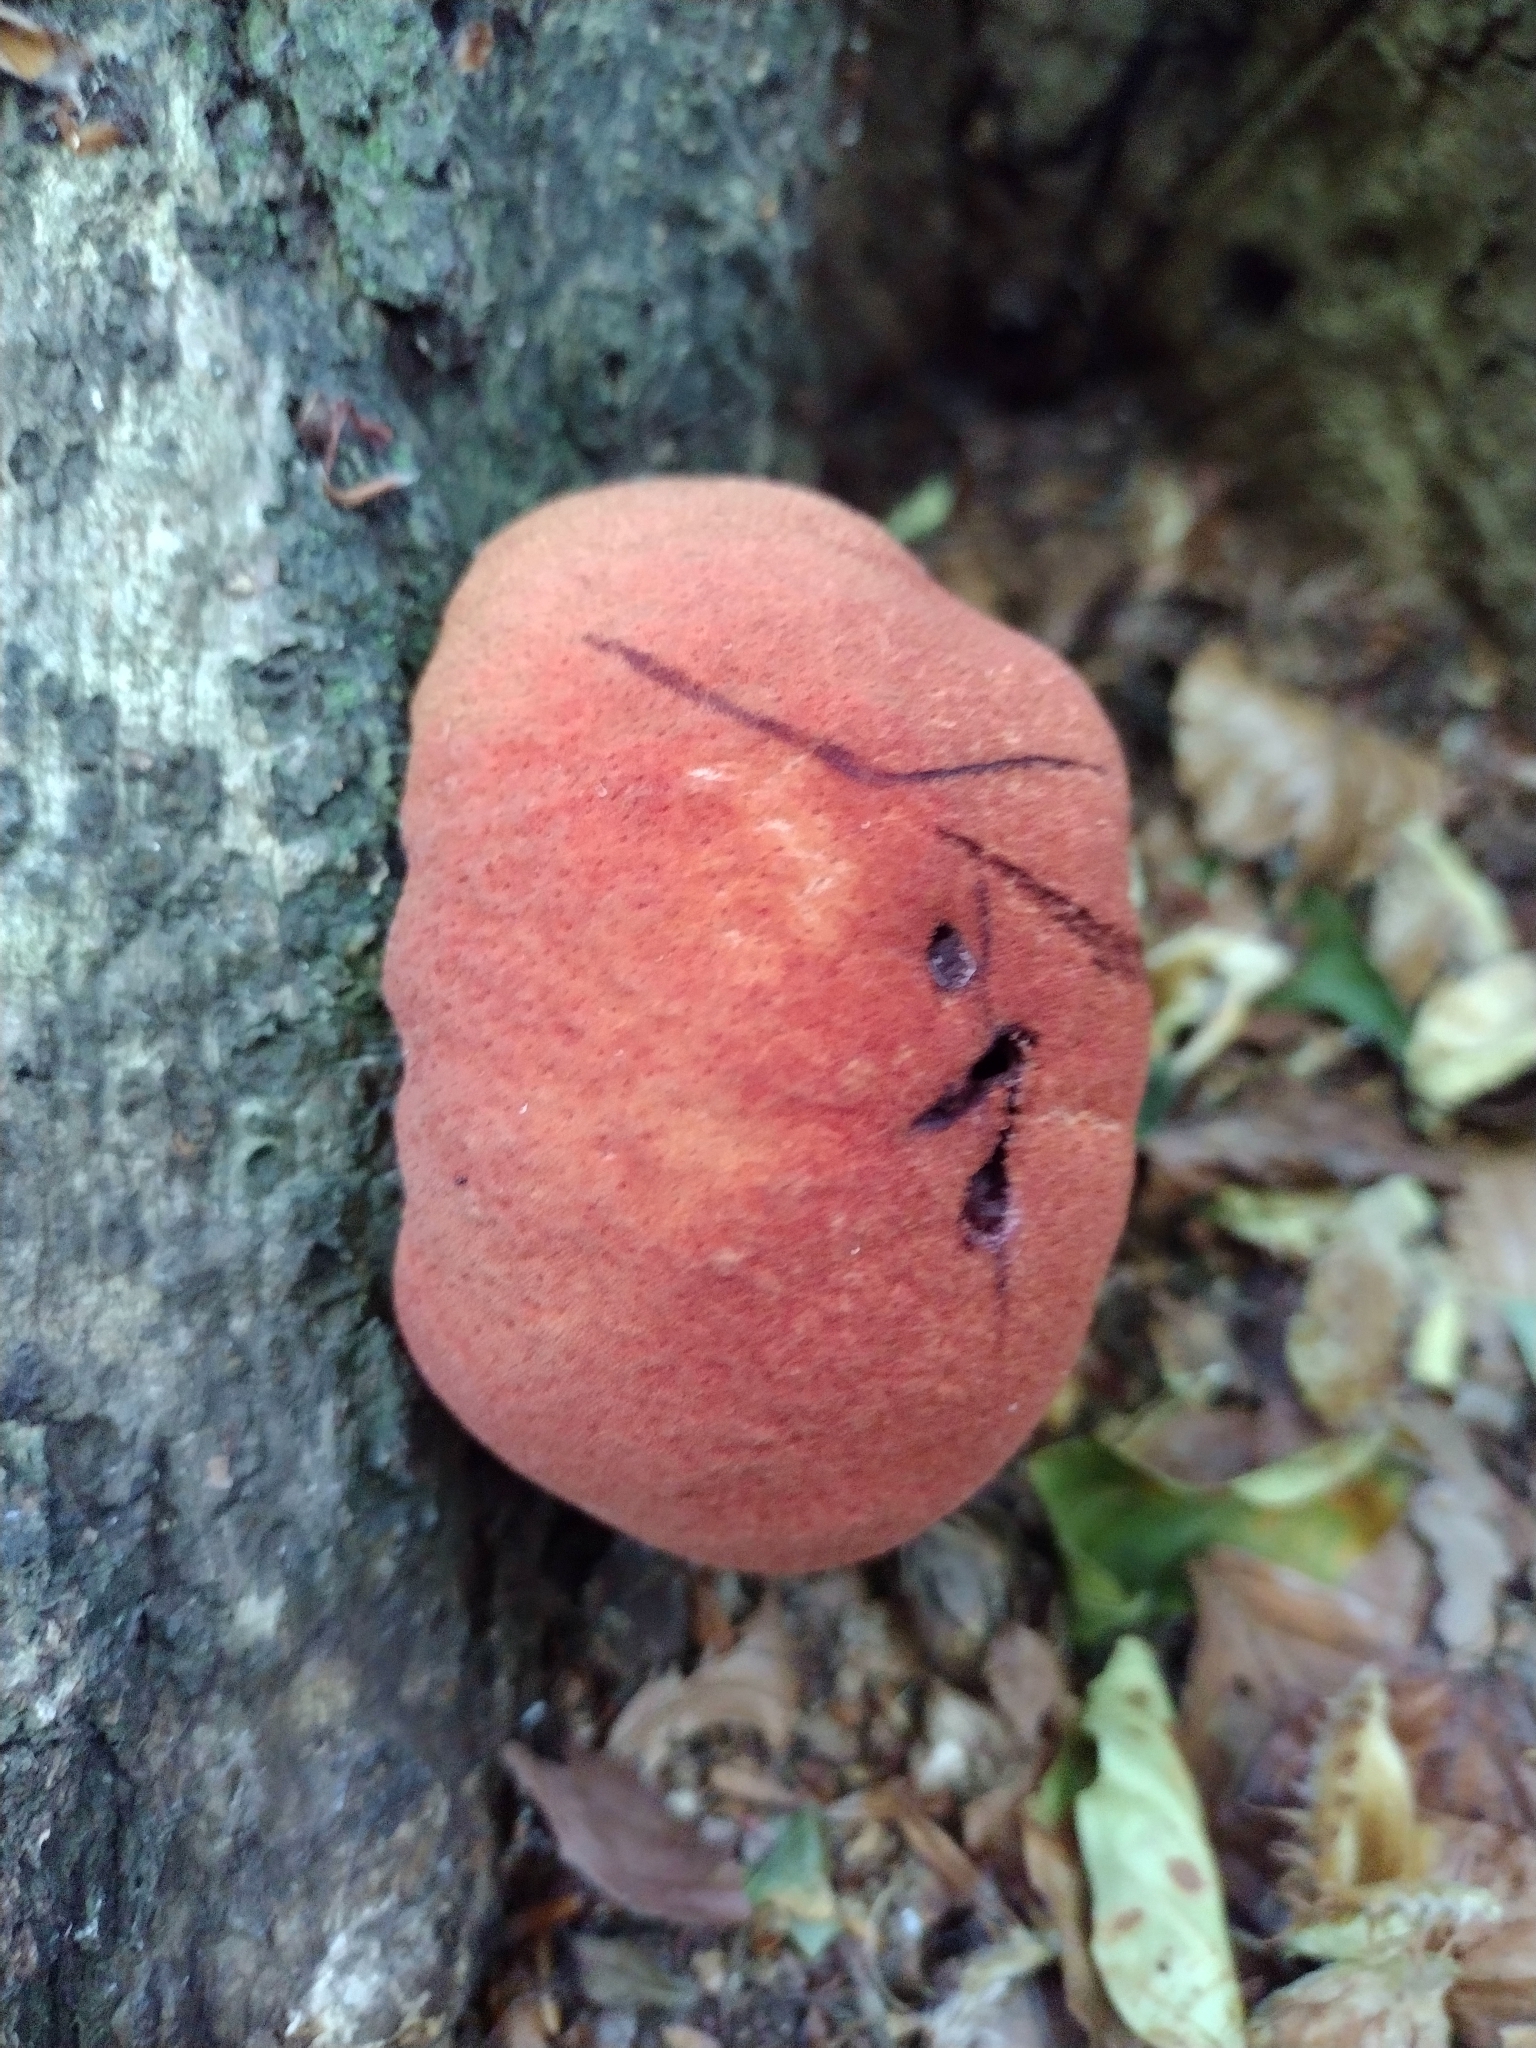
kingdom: Fungi
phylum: Basidiomycota
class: Agaricomycetes
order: Agaricales
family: Fistulinaceae
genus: Fistulina
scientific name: Fistulina hepatica
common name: Beef-steak fungus
